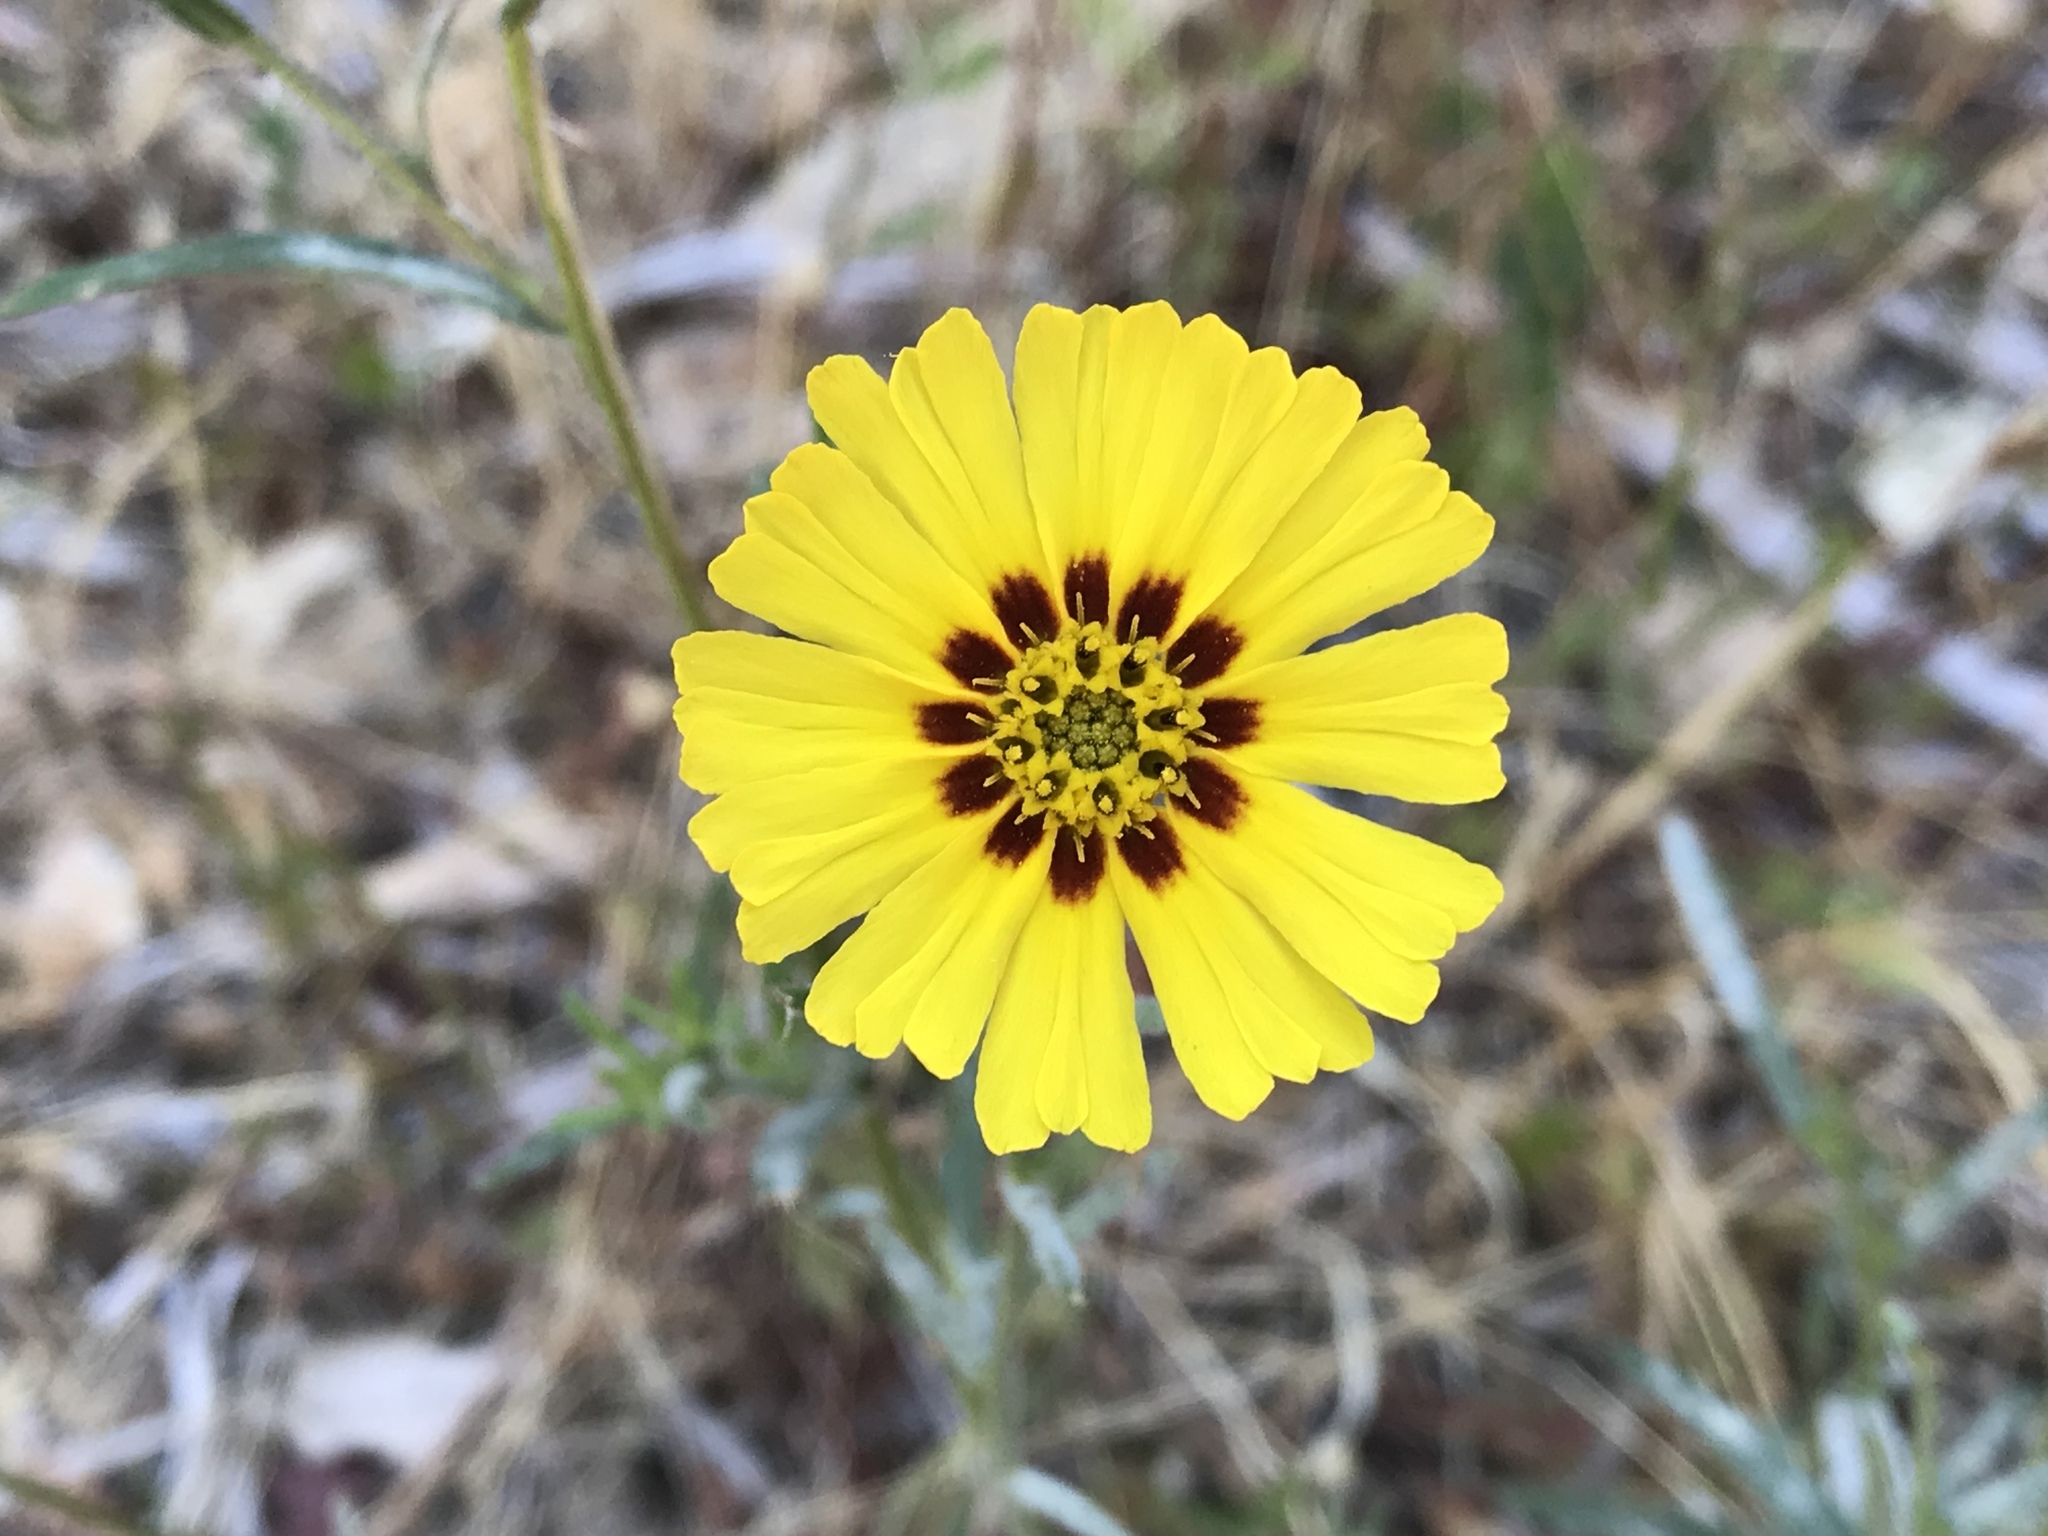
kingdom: Plantae
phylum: Tracheophyta
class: Magnoliopsida
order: Asterales
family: Asteraceae
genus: Madia
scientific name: Madia elegans
